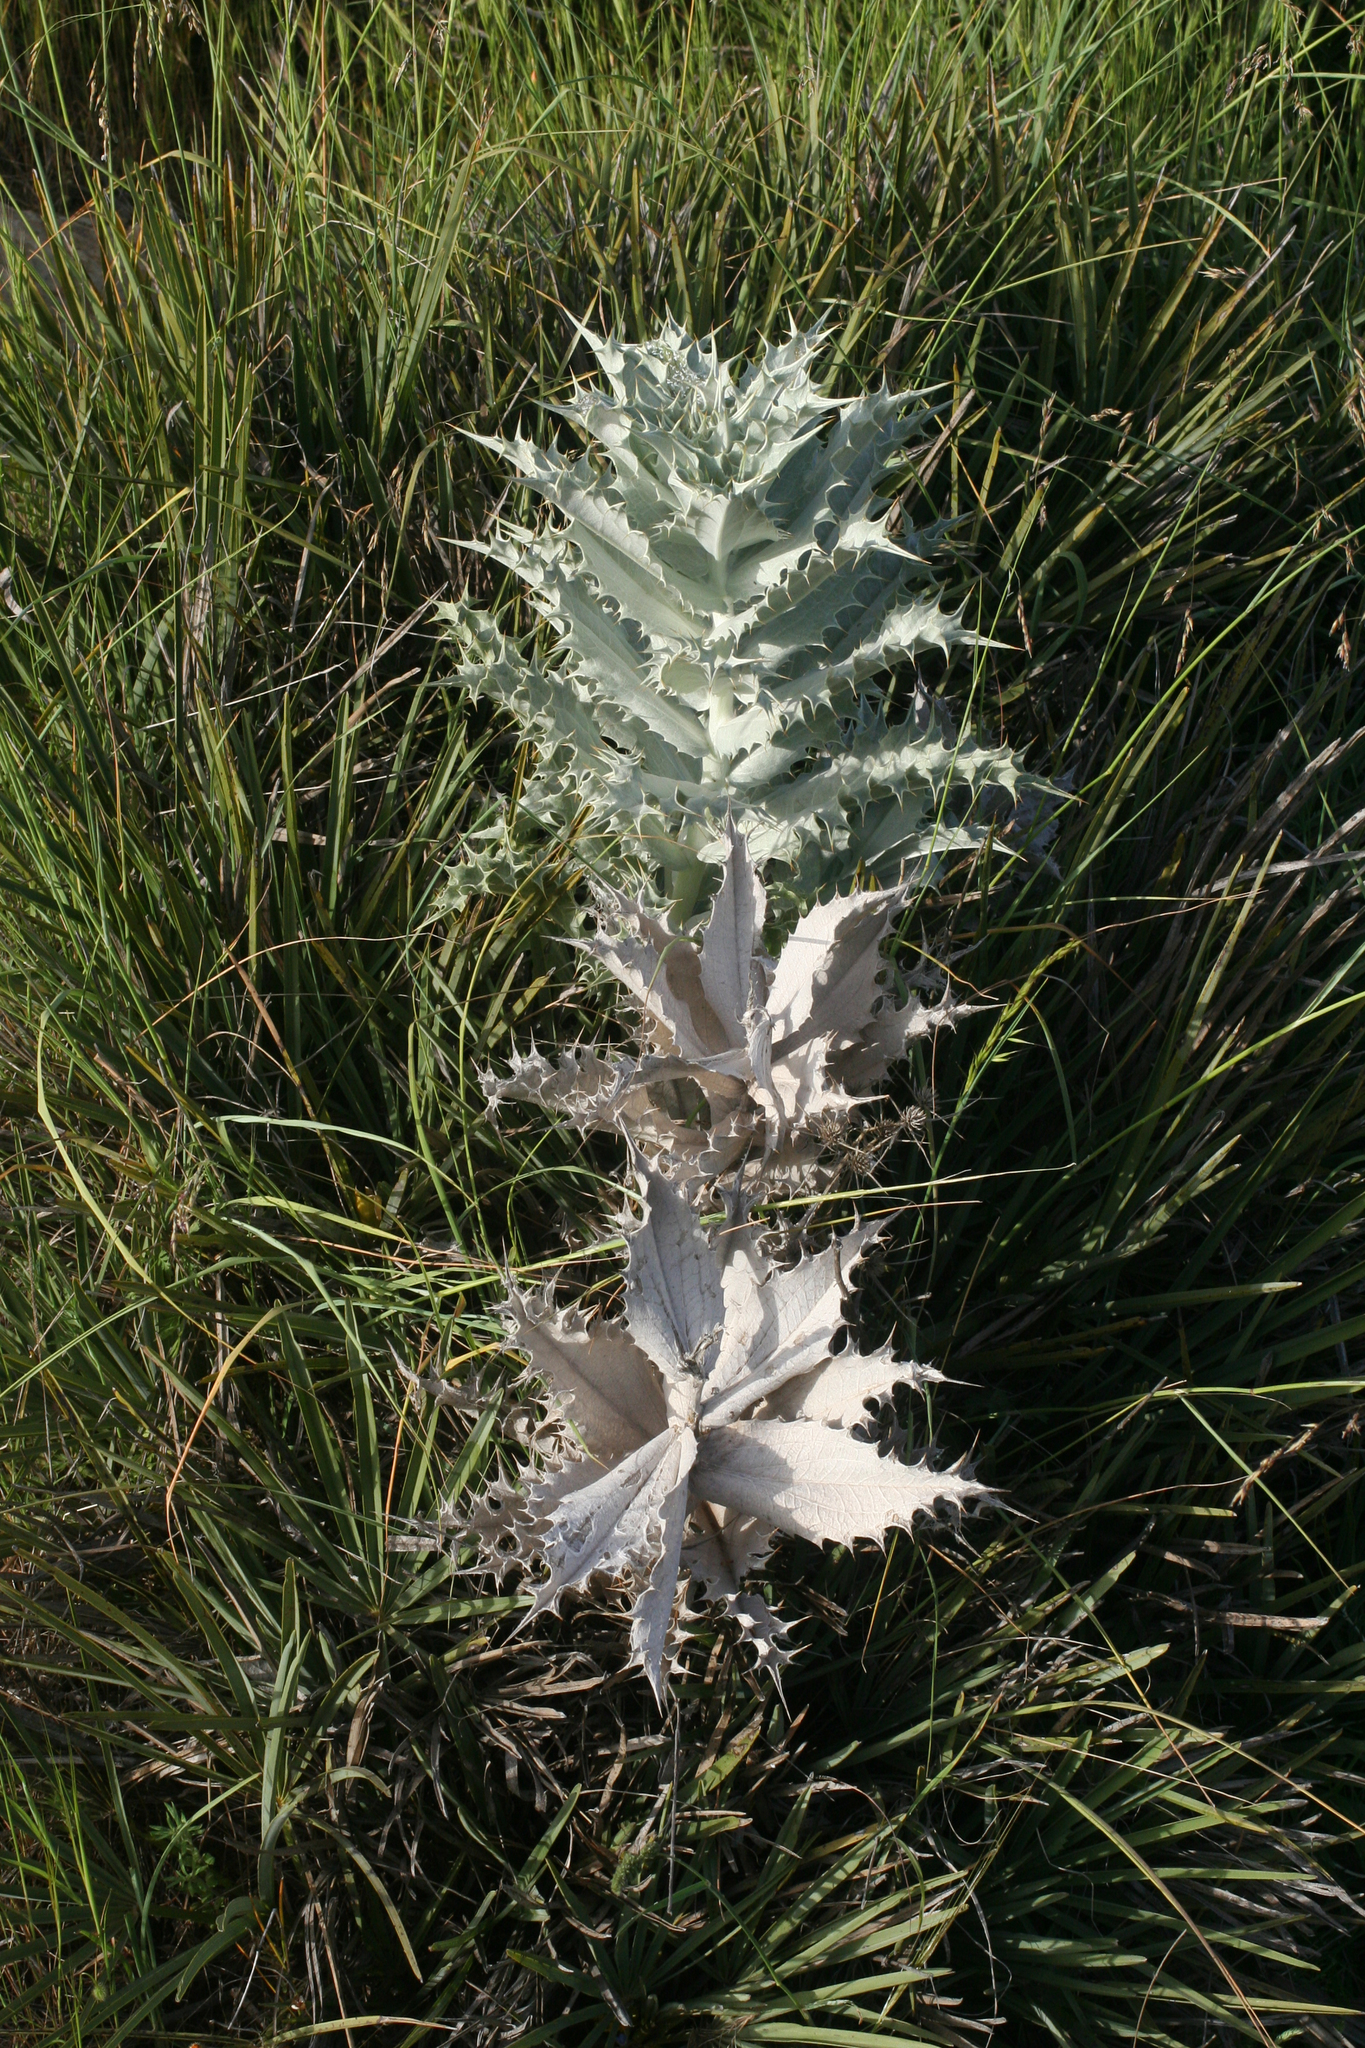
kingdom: Plantae
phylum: Tracheophyta
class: Magnoliopsida
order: Asterales
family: Asteraceae
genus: Chamaeleon
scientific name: Chamaeleon macrophyllus
